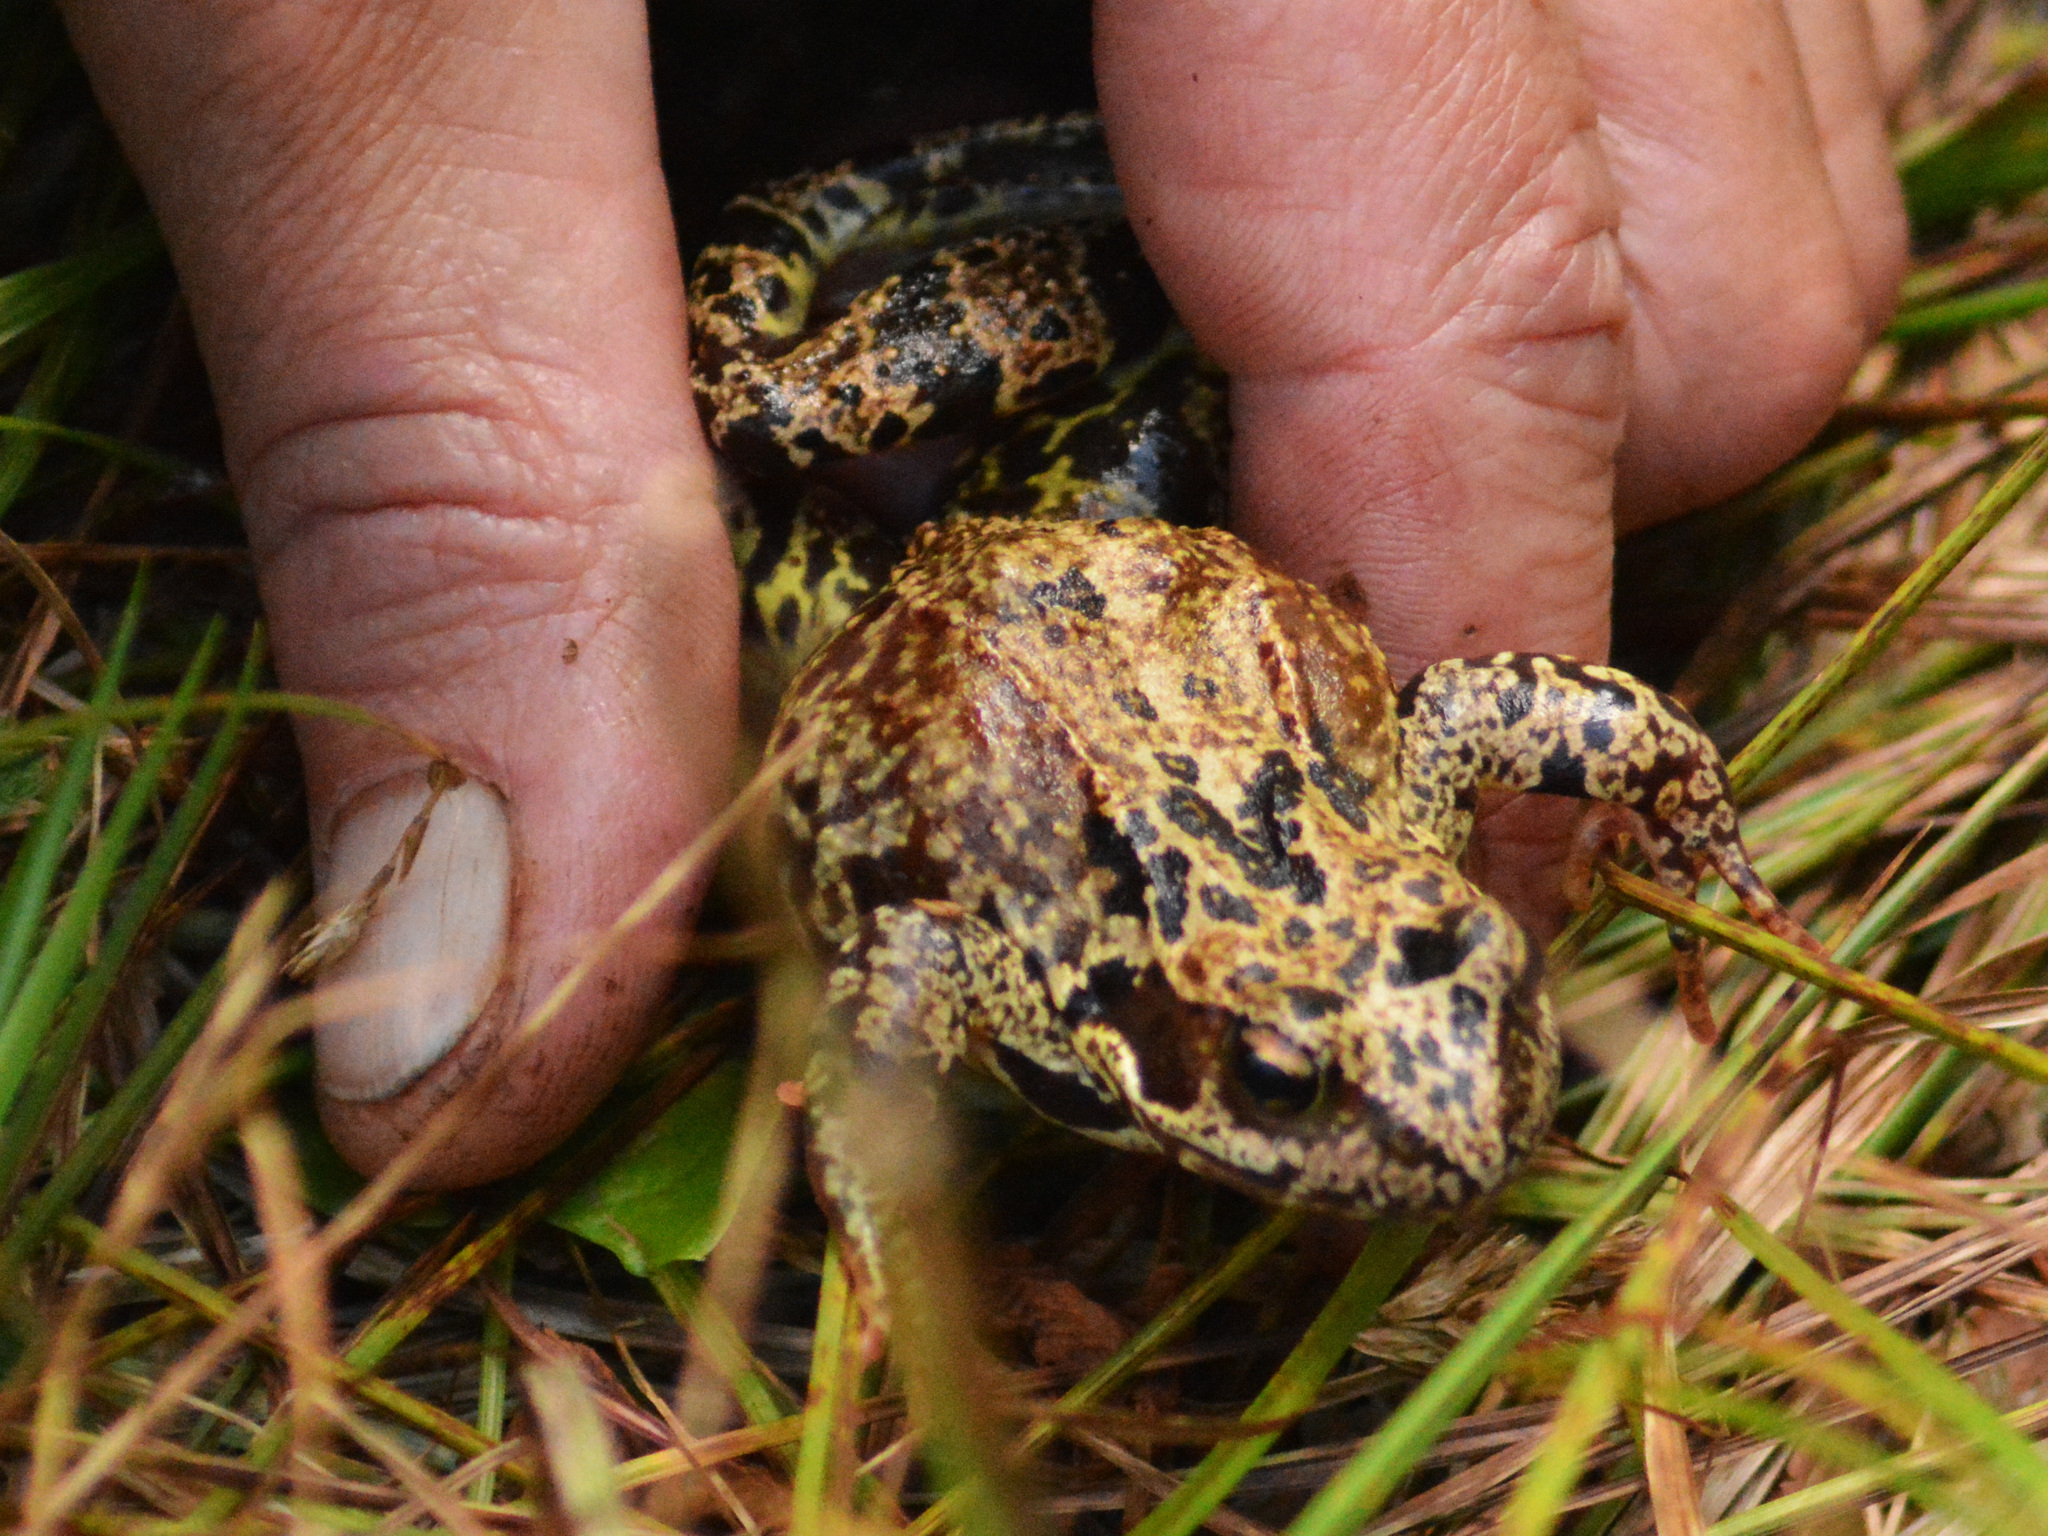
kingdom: Animalia
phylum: Chordata
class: Amphibia
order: Anura
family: Ranidae
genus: Rana
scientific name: Rana temporaria
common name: Common frog
